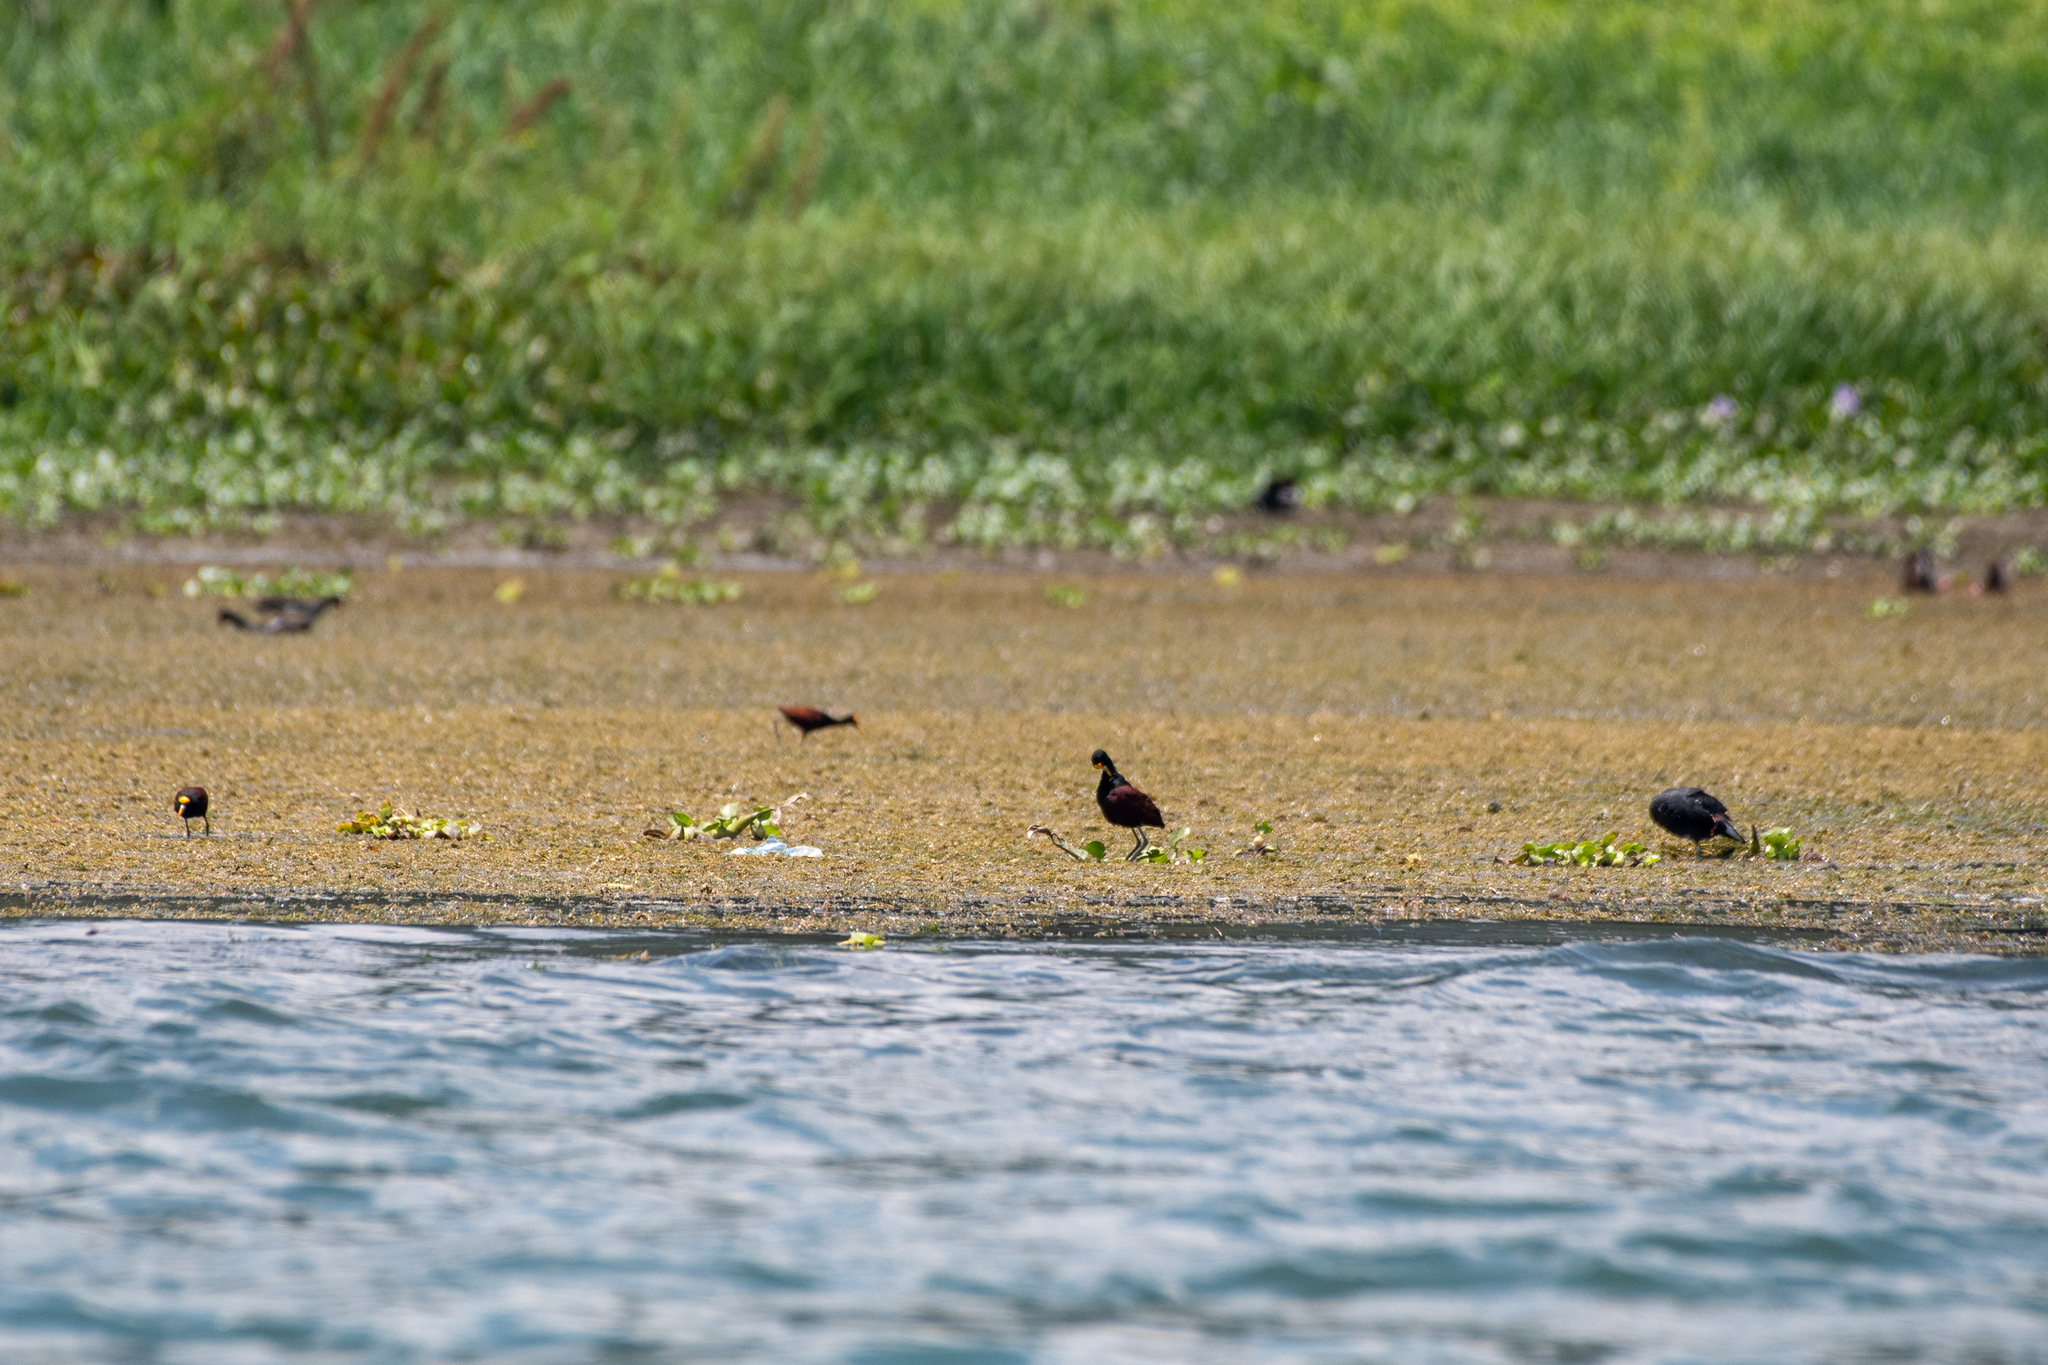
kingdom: Animalia
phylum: Chordata
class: Aves
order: Charadriiformes
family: Jacanidae
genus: Jacana
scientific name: Jacana spinosa
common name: Northern jacana
